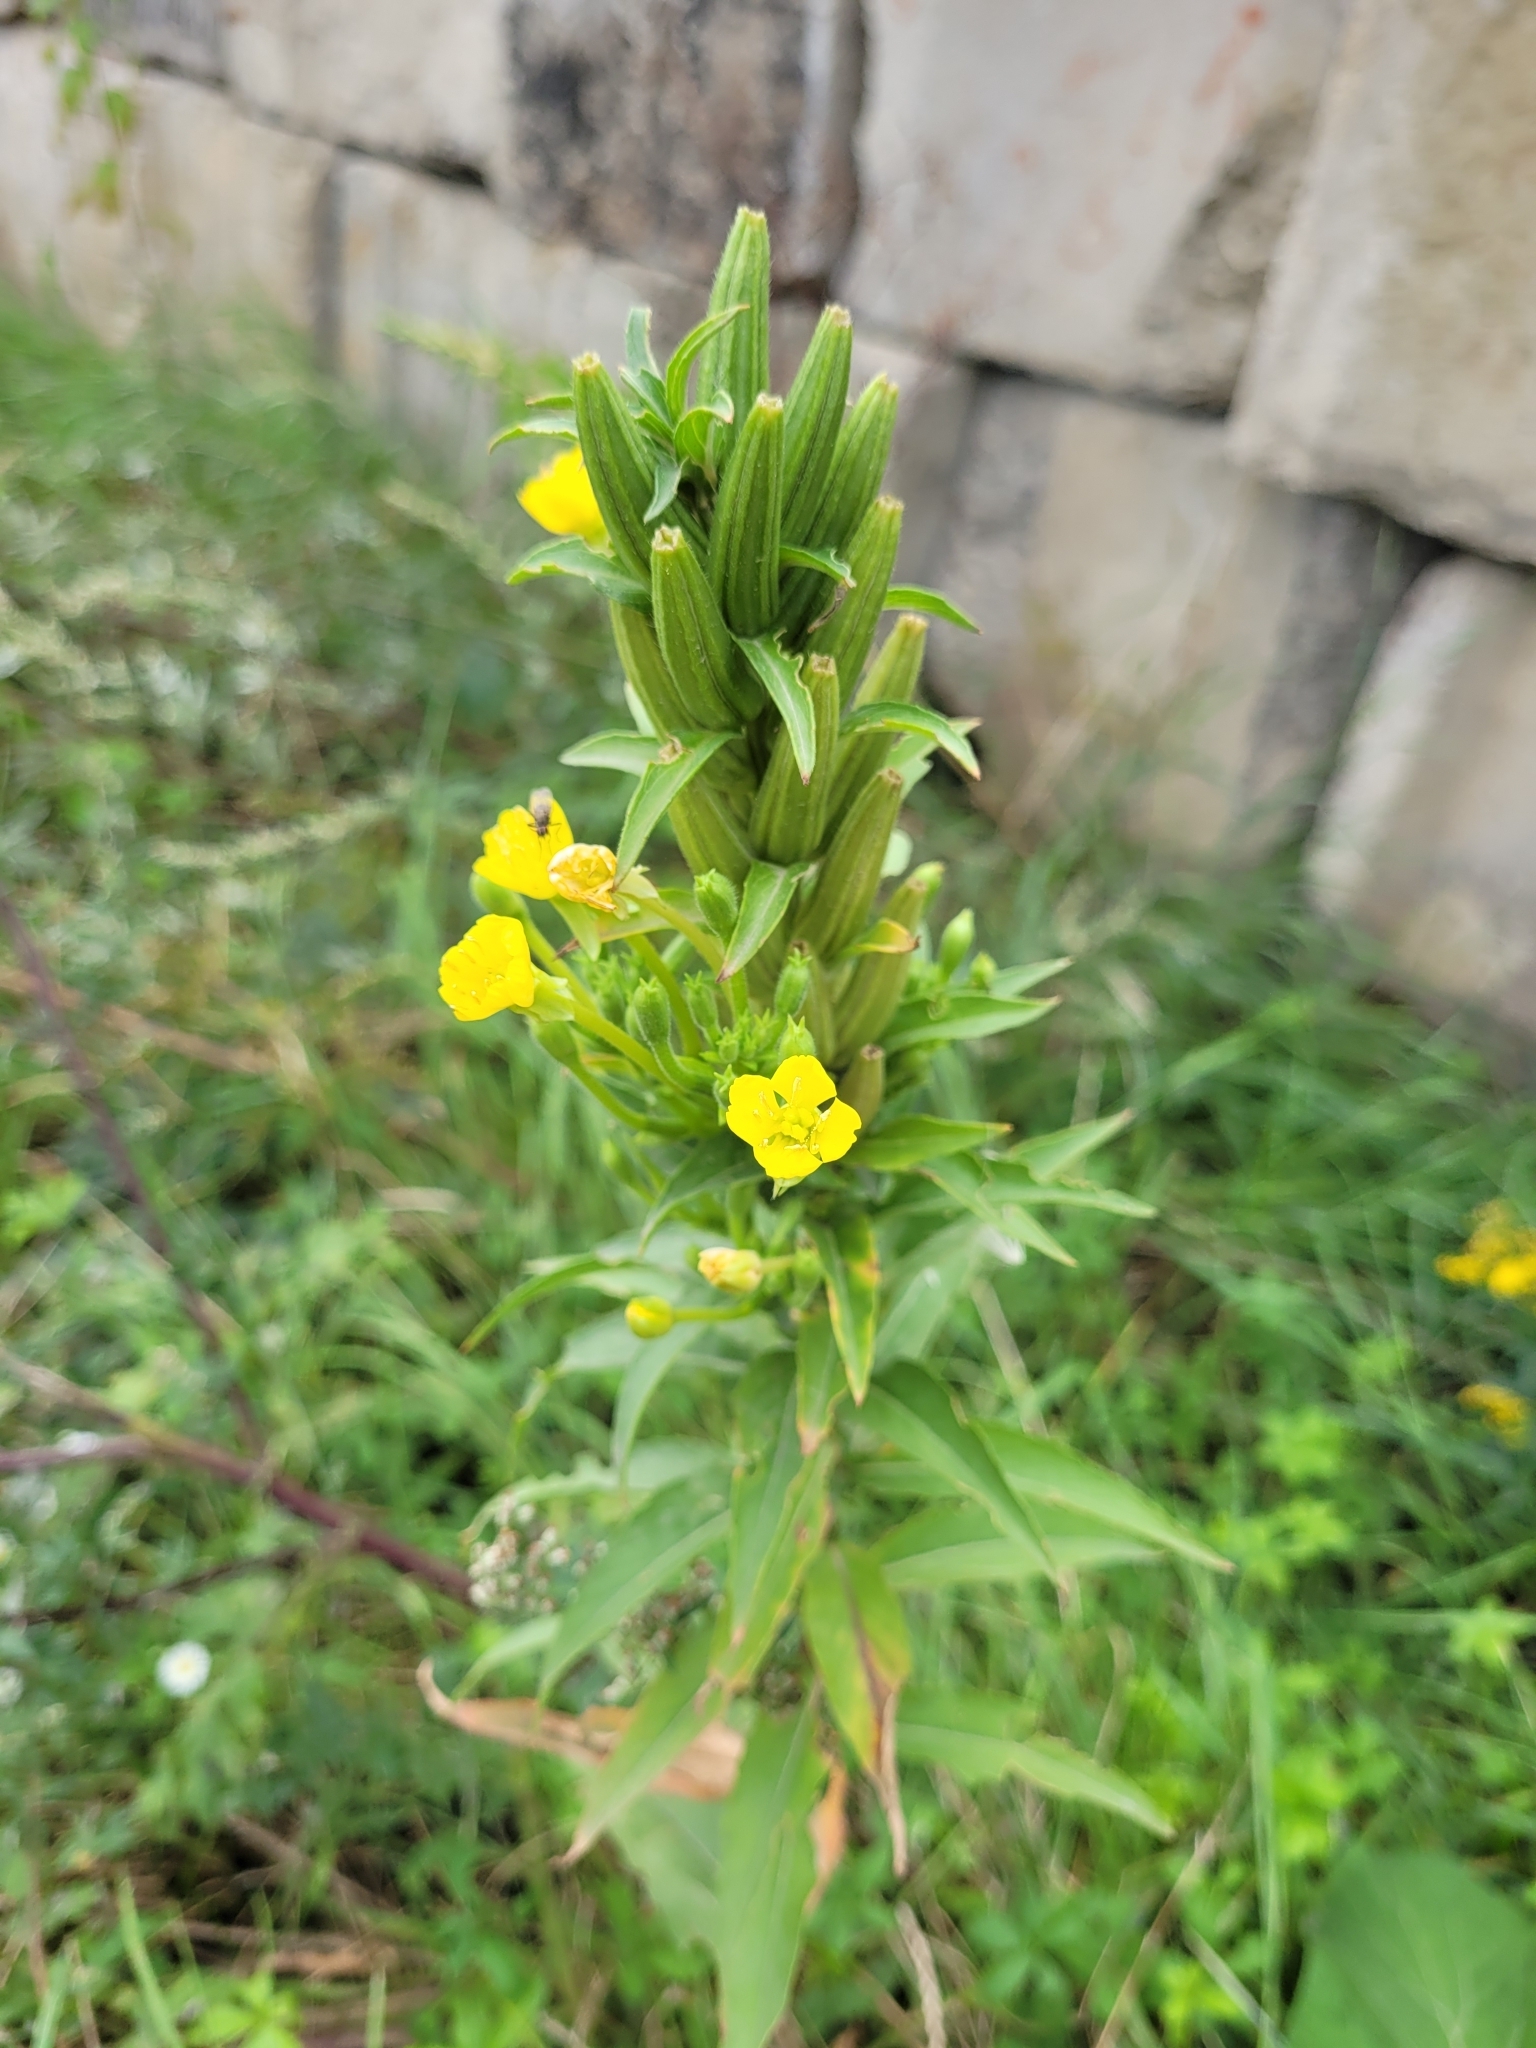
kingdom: Plantae
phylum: Tracheophyta
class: Magnoliopsida
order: Myrtales
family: Onagraceae
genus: Oenothera
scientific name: Oenothera biennis
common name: Common evening-primrose
